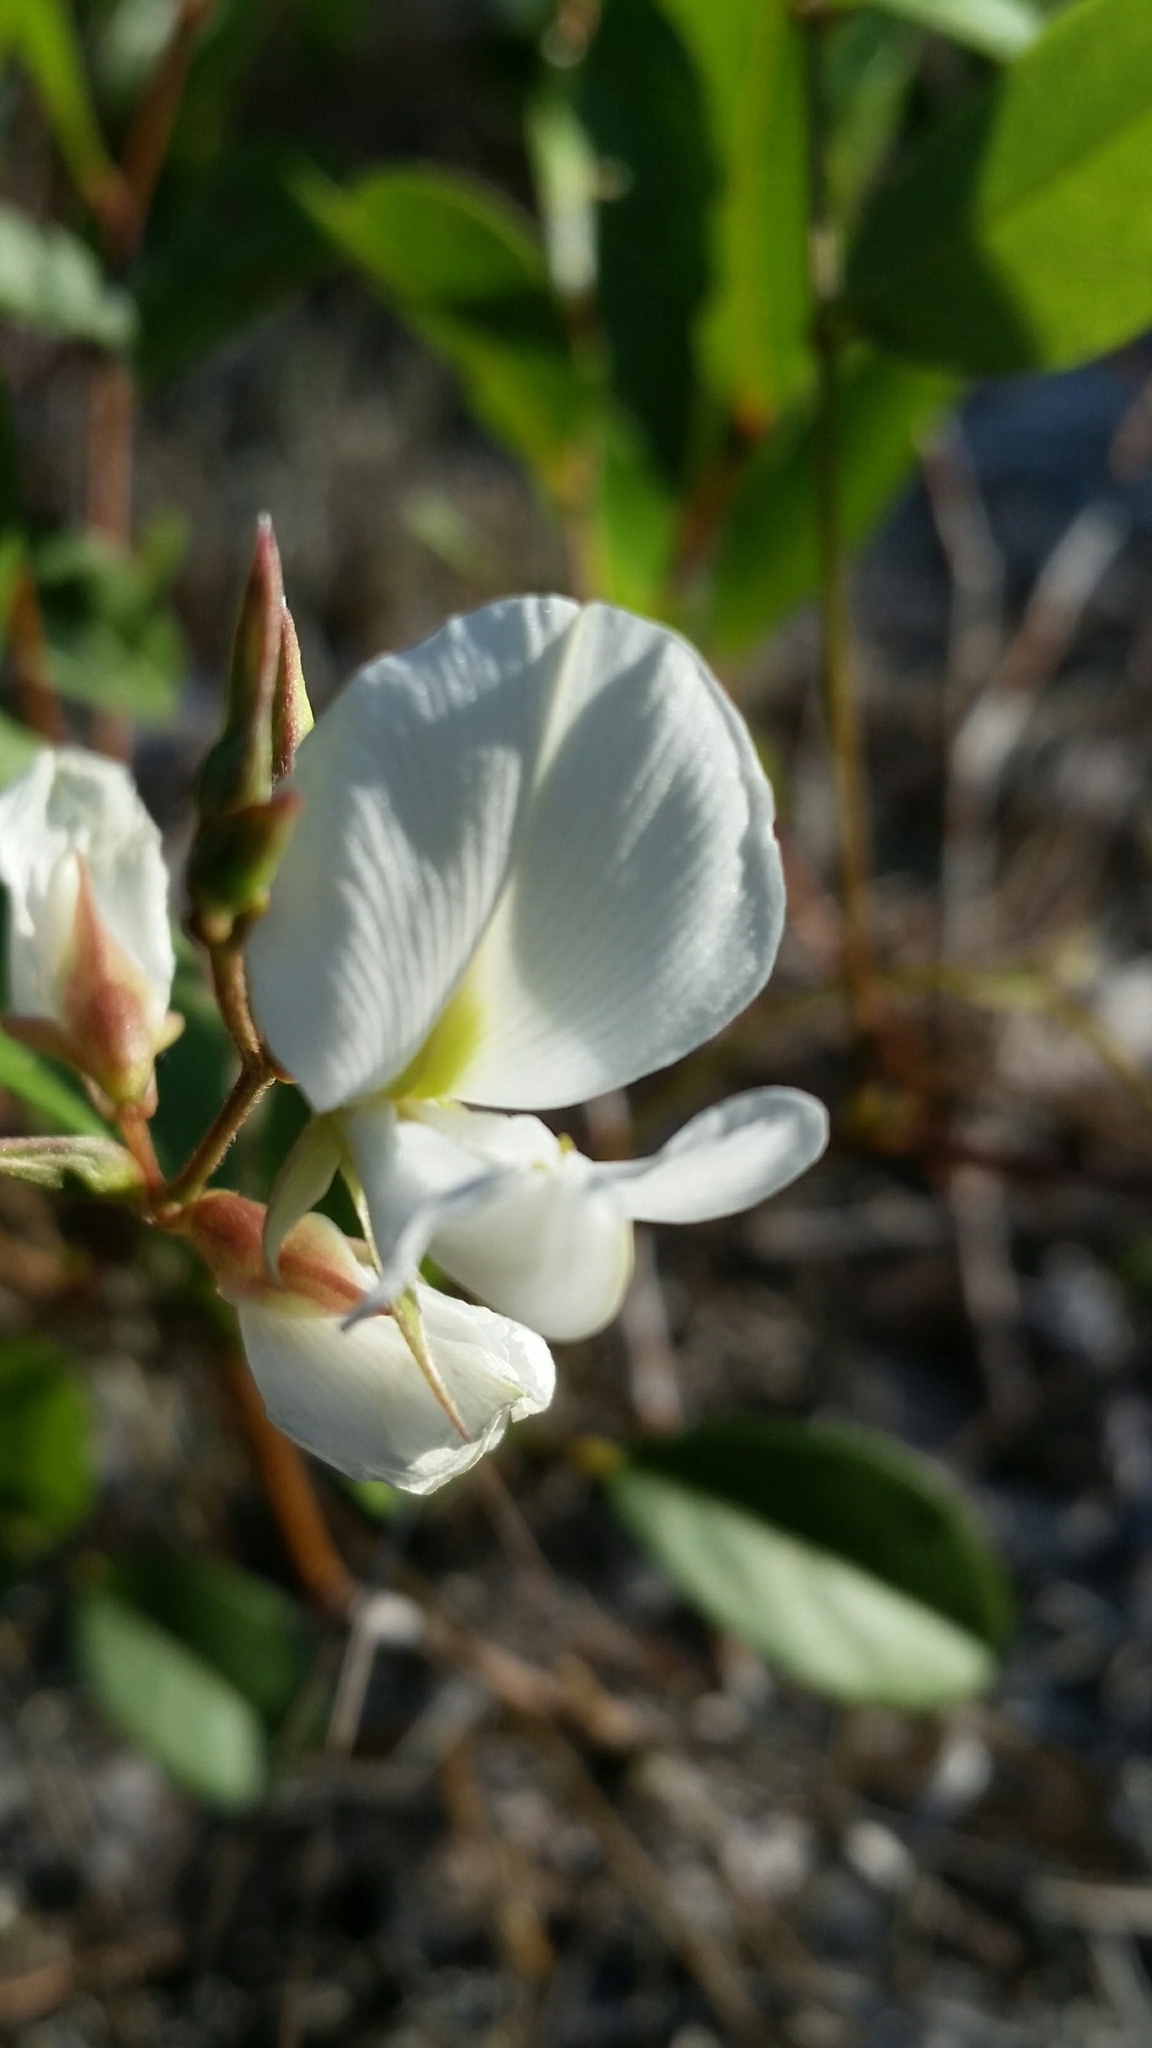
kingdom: Plantae
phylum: Tracheophyta
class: Magnoliopsida
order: Fabales
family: Fabaceae
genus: Galactia
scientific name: Galactia elliottii
